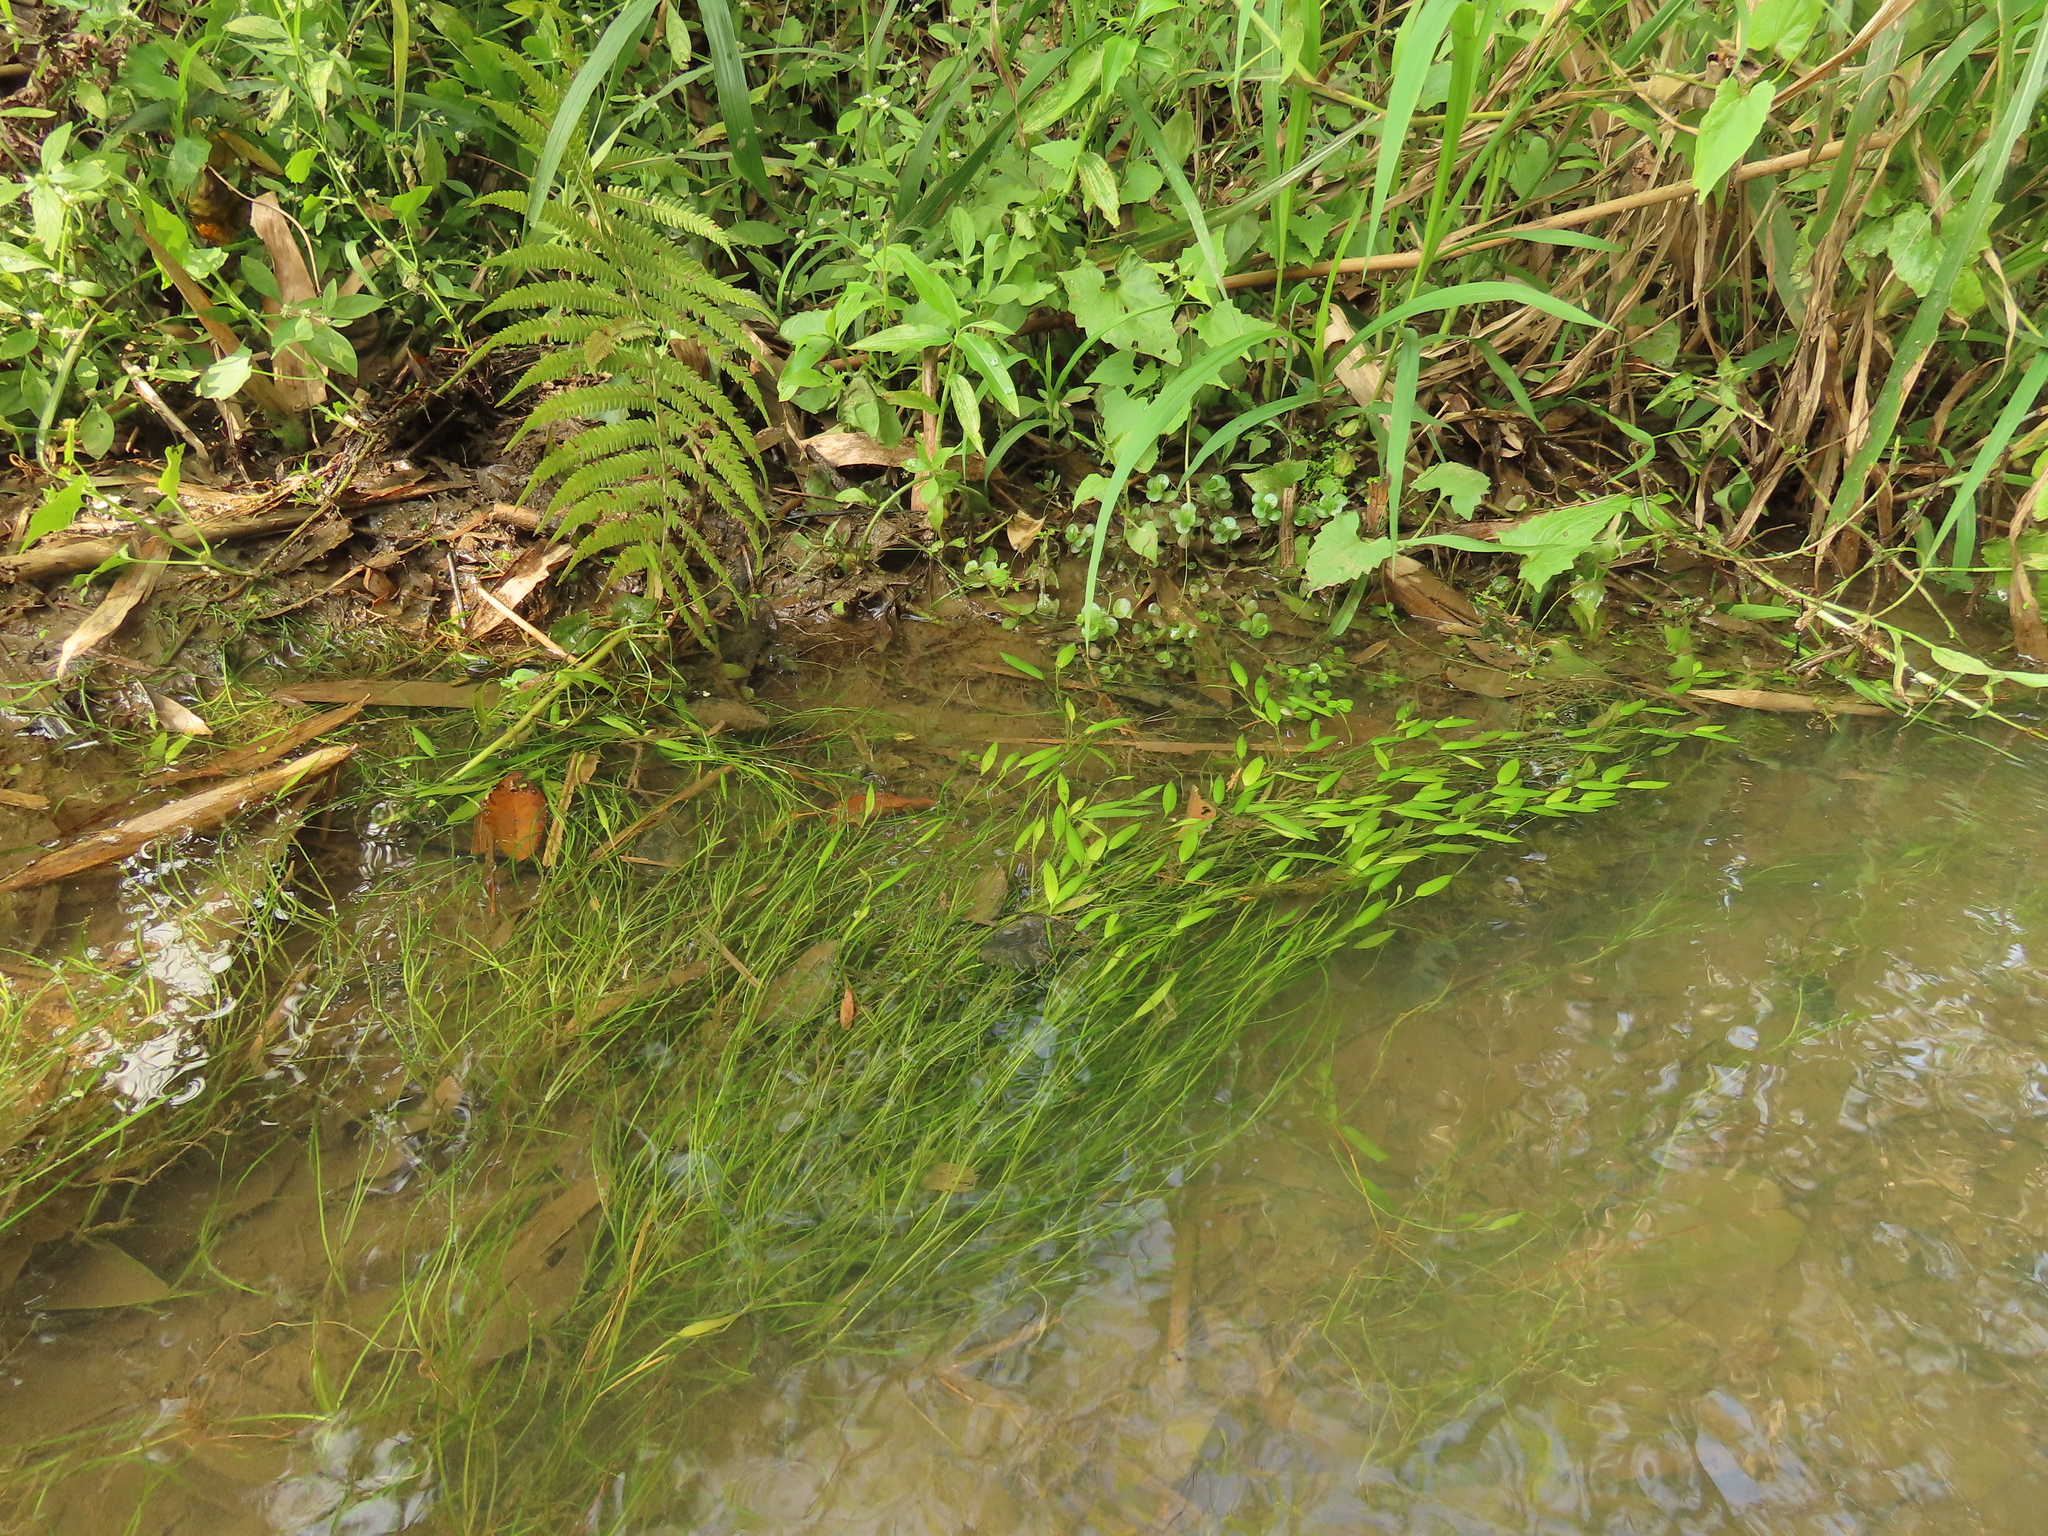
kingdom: Plantae
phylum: Tracheophyta
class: Magnoliopsida
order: Myrtales
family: Lythraceae
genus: Rotala
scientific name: Rotala rotundifolia
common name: Roundleaf toothcup
